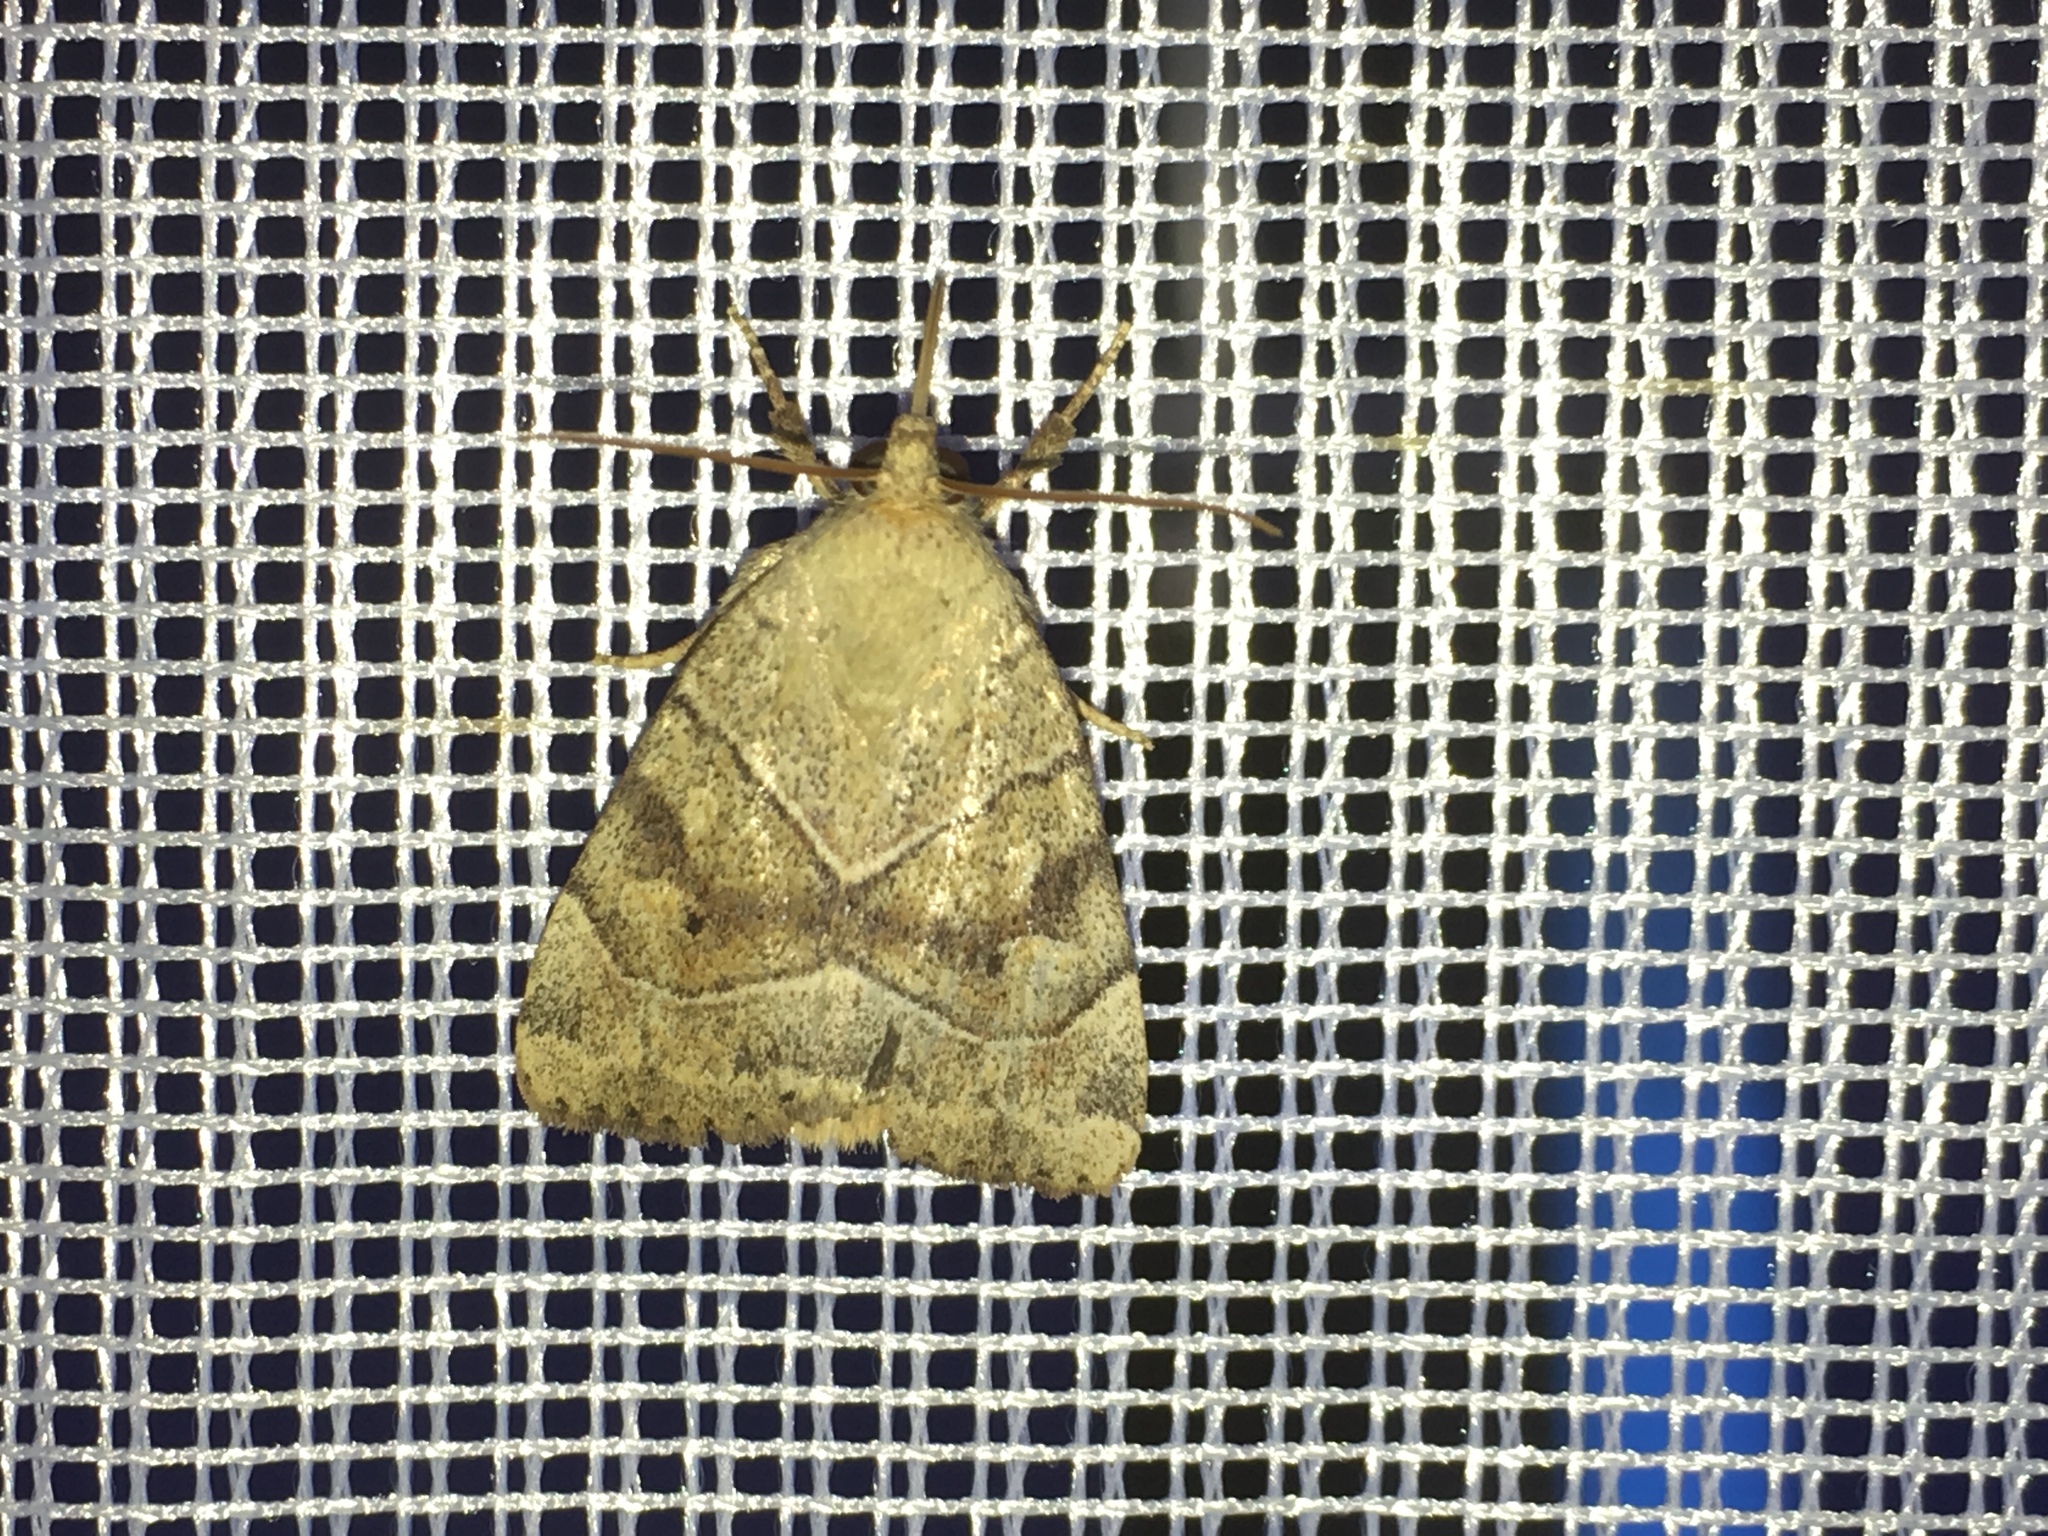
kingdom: Animalia
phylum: Arthropoda
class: Insecta
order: Lepidoptera
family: Noctuidae
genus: Cosmia
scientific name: Cosmia trapezina
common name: Dun-bar
